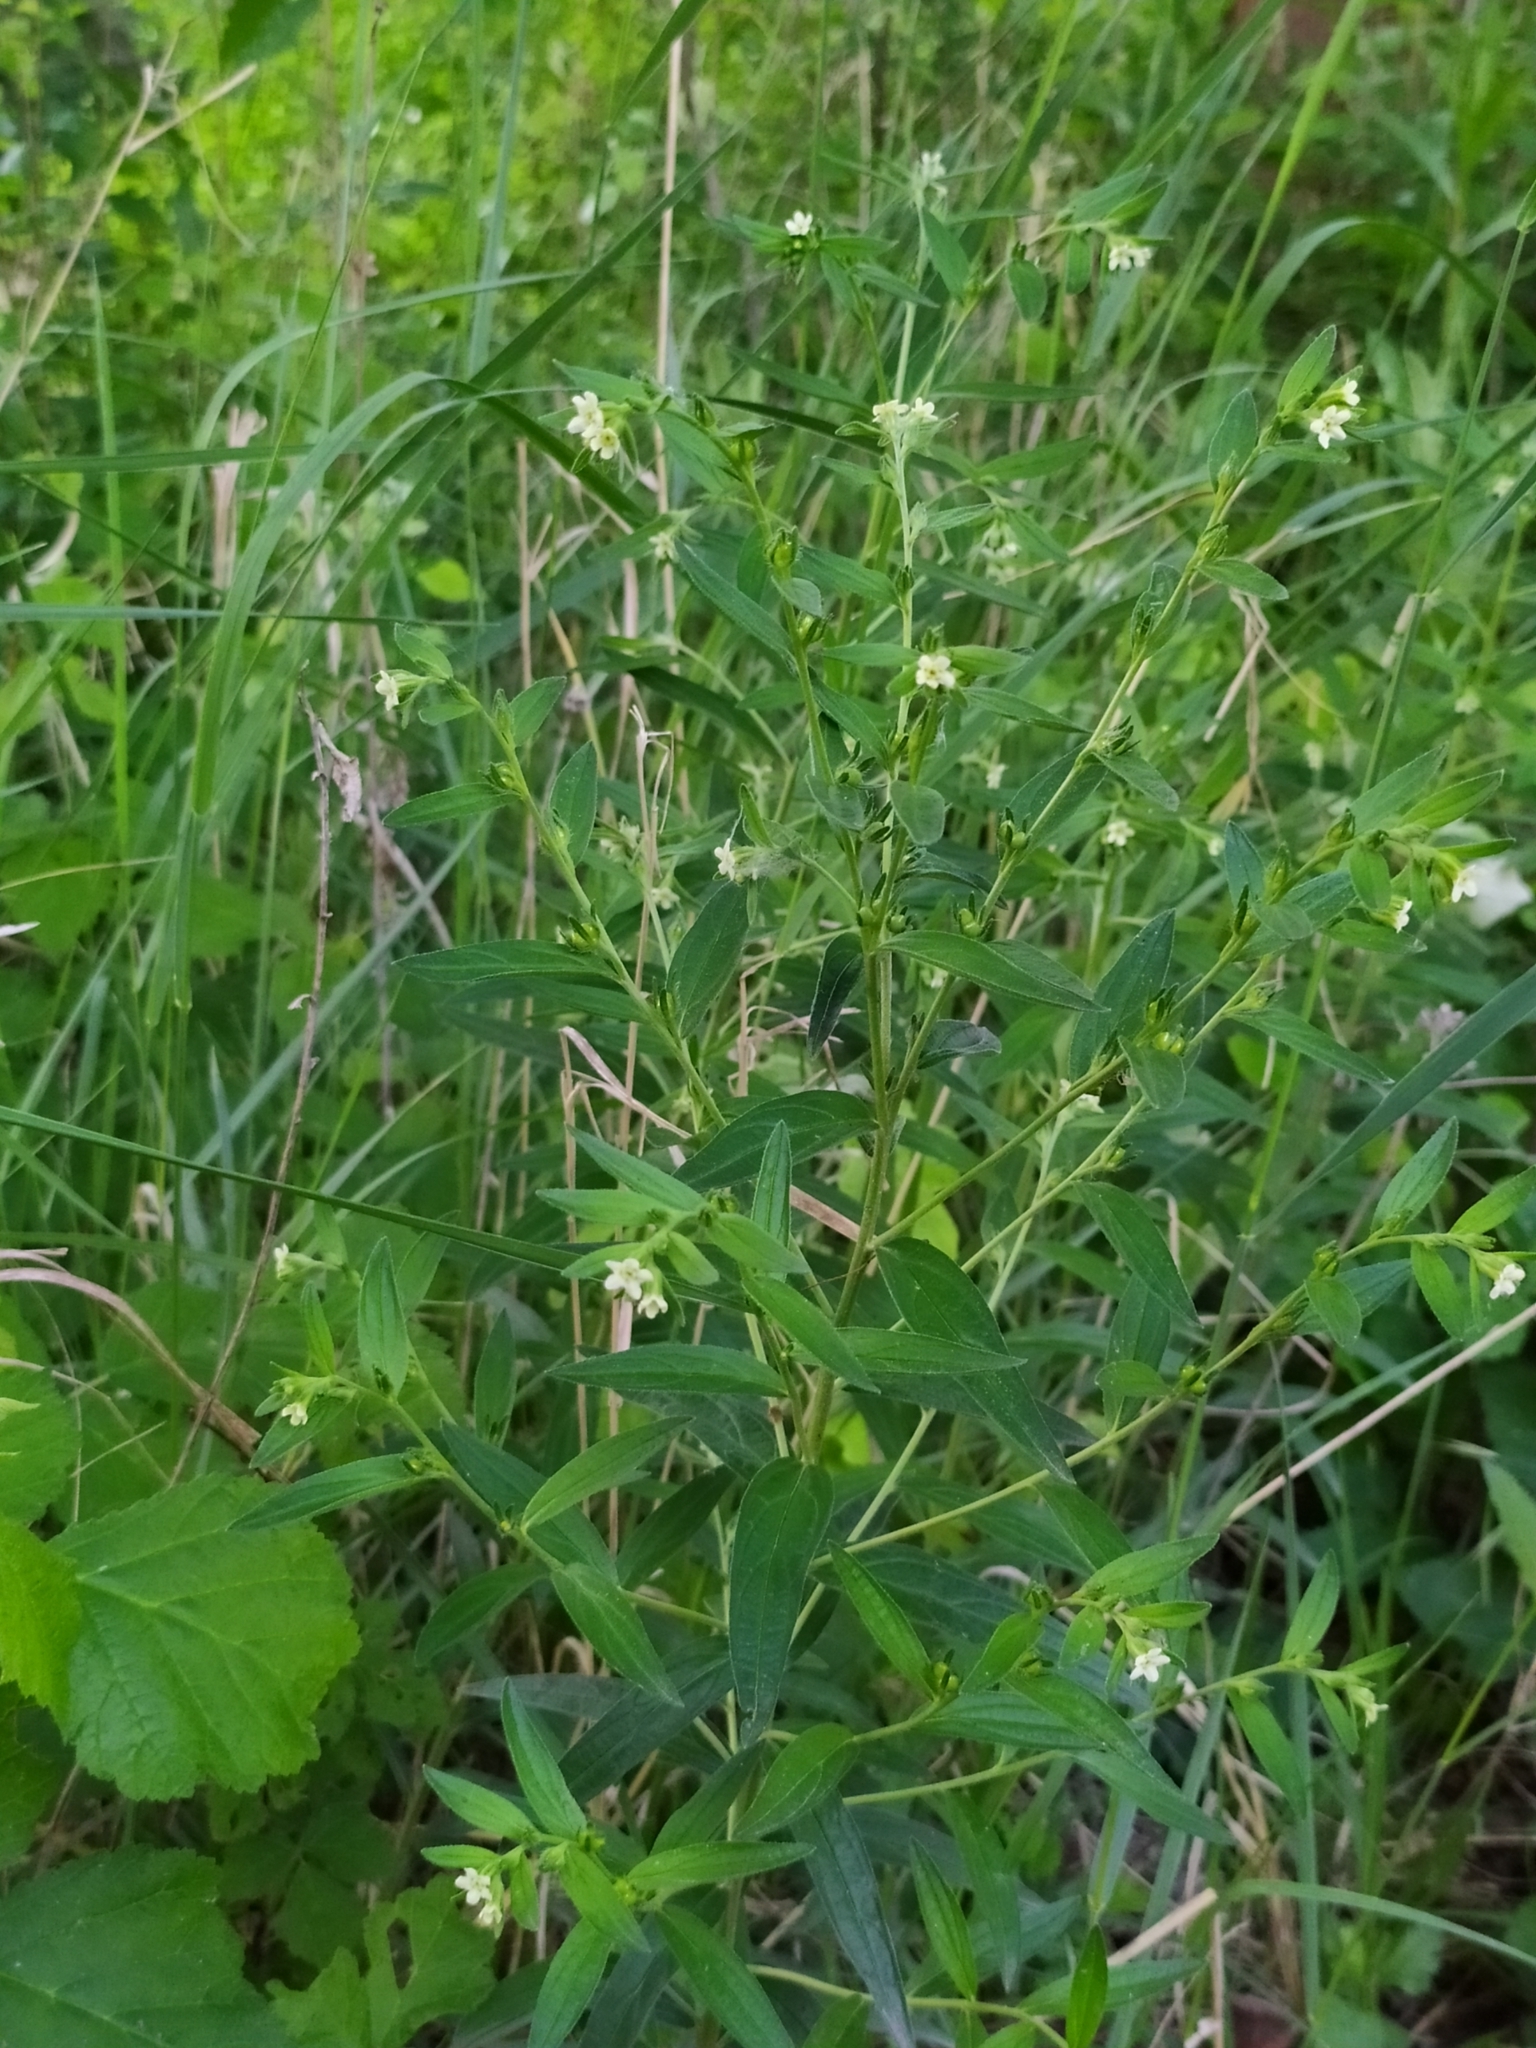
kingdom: Plantae
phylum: Tracheophyta
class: Magnoliopsida
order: Boraginales
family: Boraginaceae
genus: Lithospermum
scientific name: Lithospermum officinale
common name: Common gromwell
